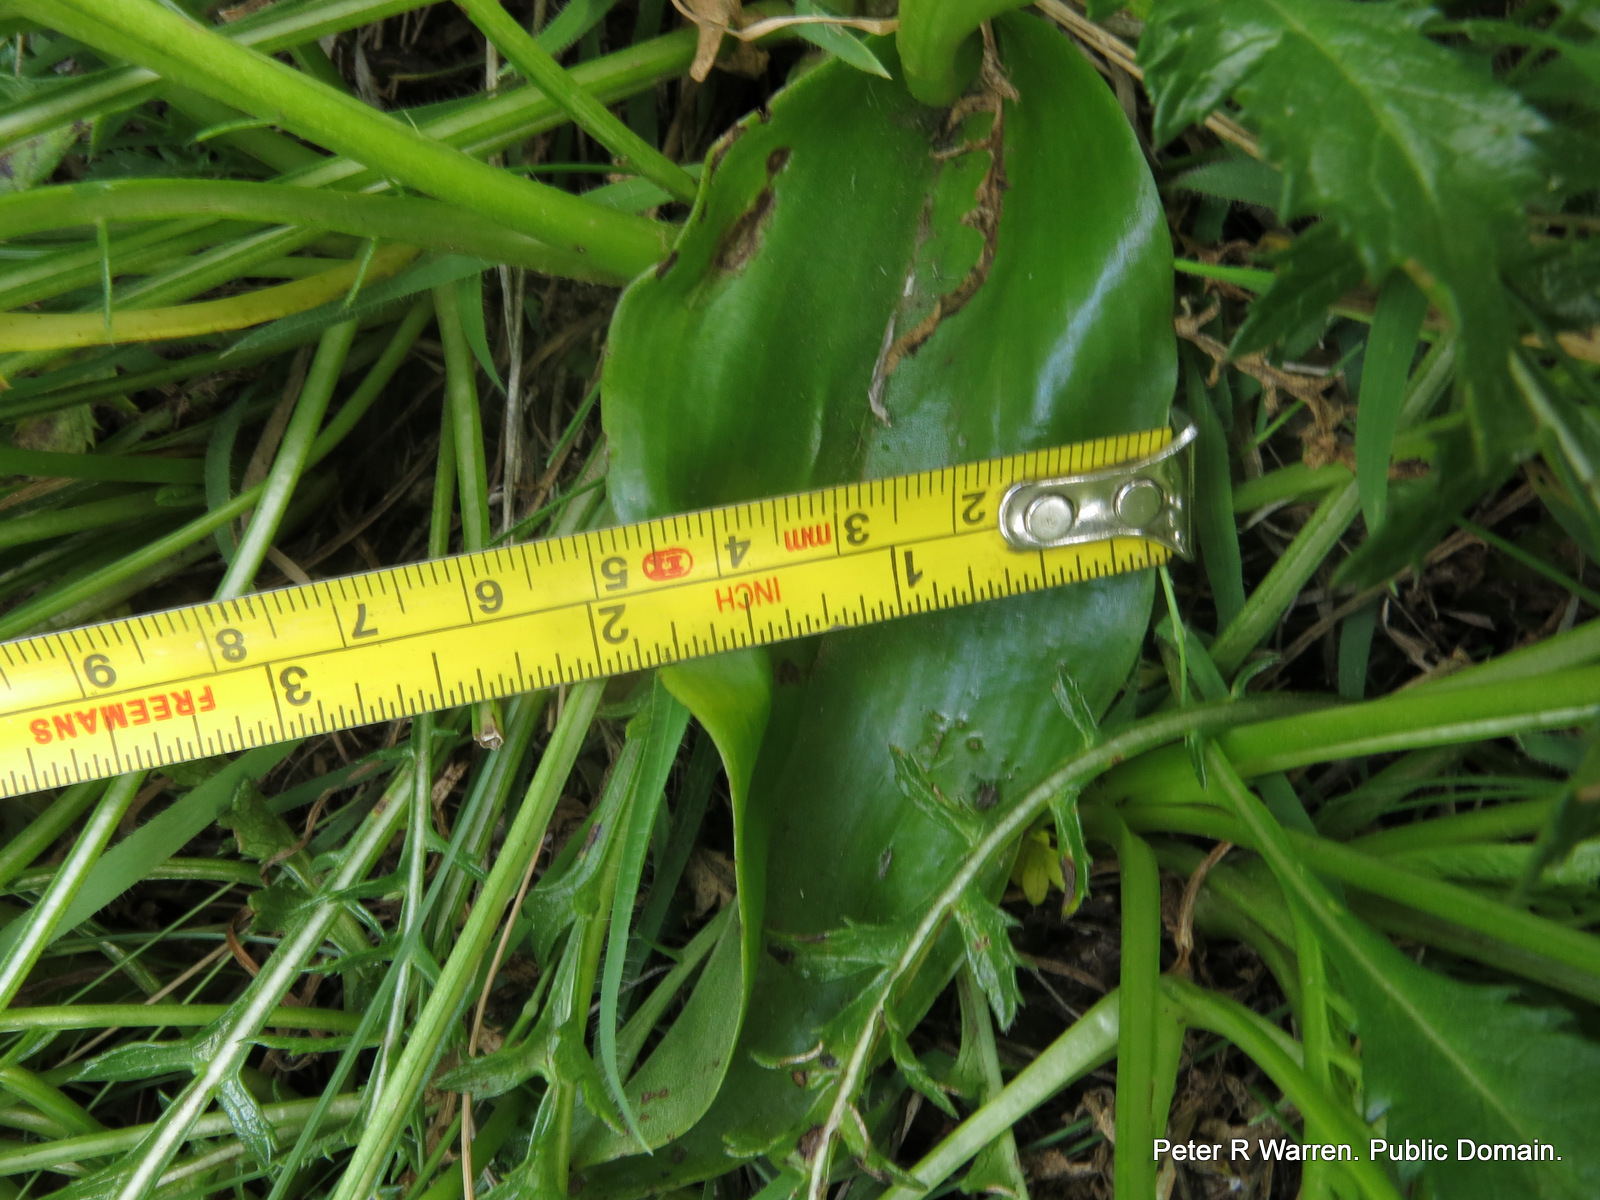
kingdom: Plantae
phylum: Tracheophyta
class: Liliopsida
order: Asparagales
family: Orchidaceae
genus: Pterygodium
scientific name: Pterygodium cooperi
